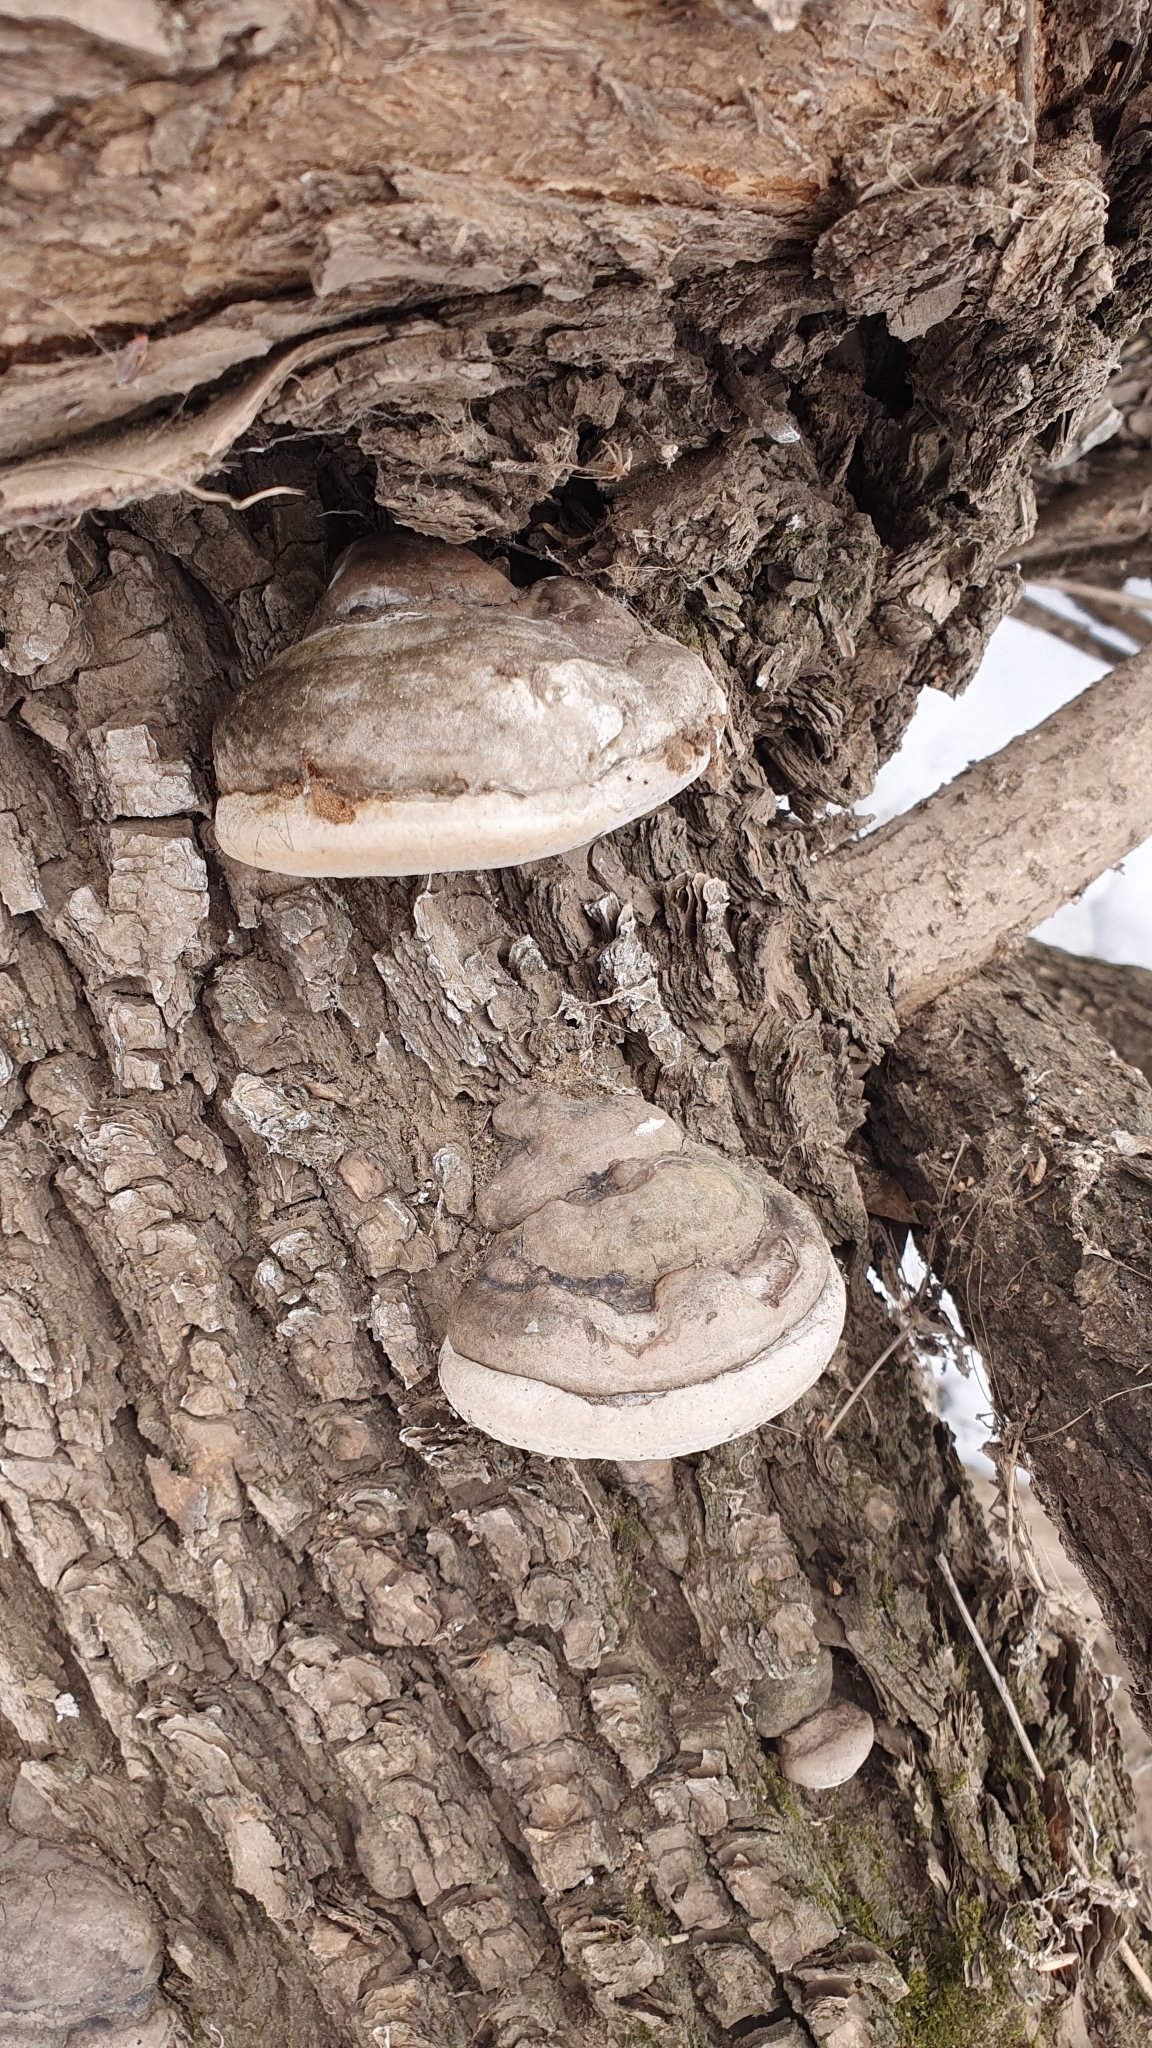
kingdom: Fungi
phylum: Basidiomycota
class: Agaricomycetes
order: Polyporales
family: Polyporaceae
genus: Fomes
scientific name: Fomes fomentarius
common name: Hoof fungus
